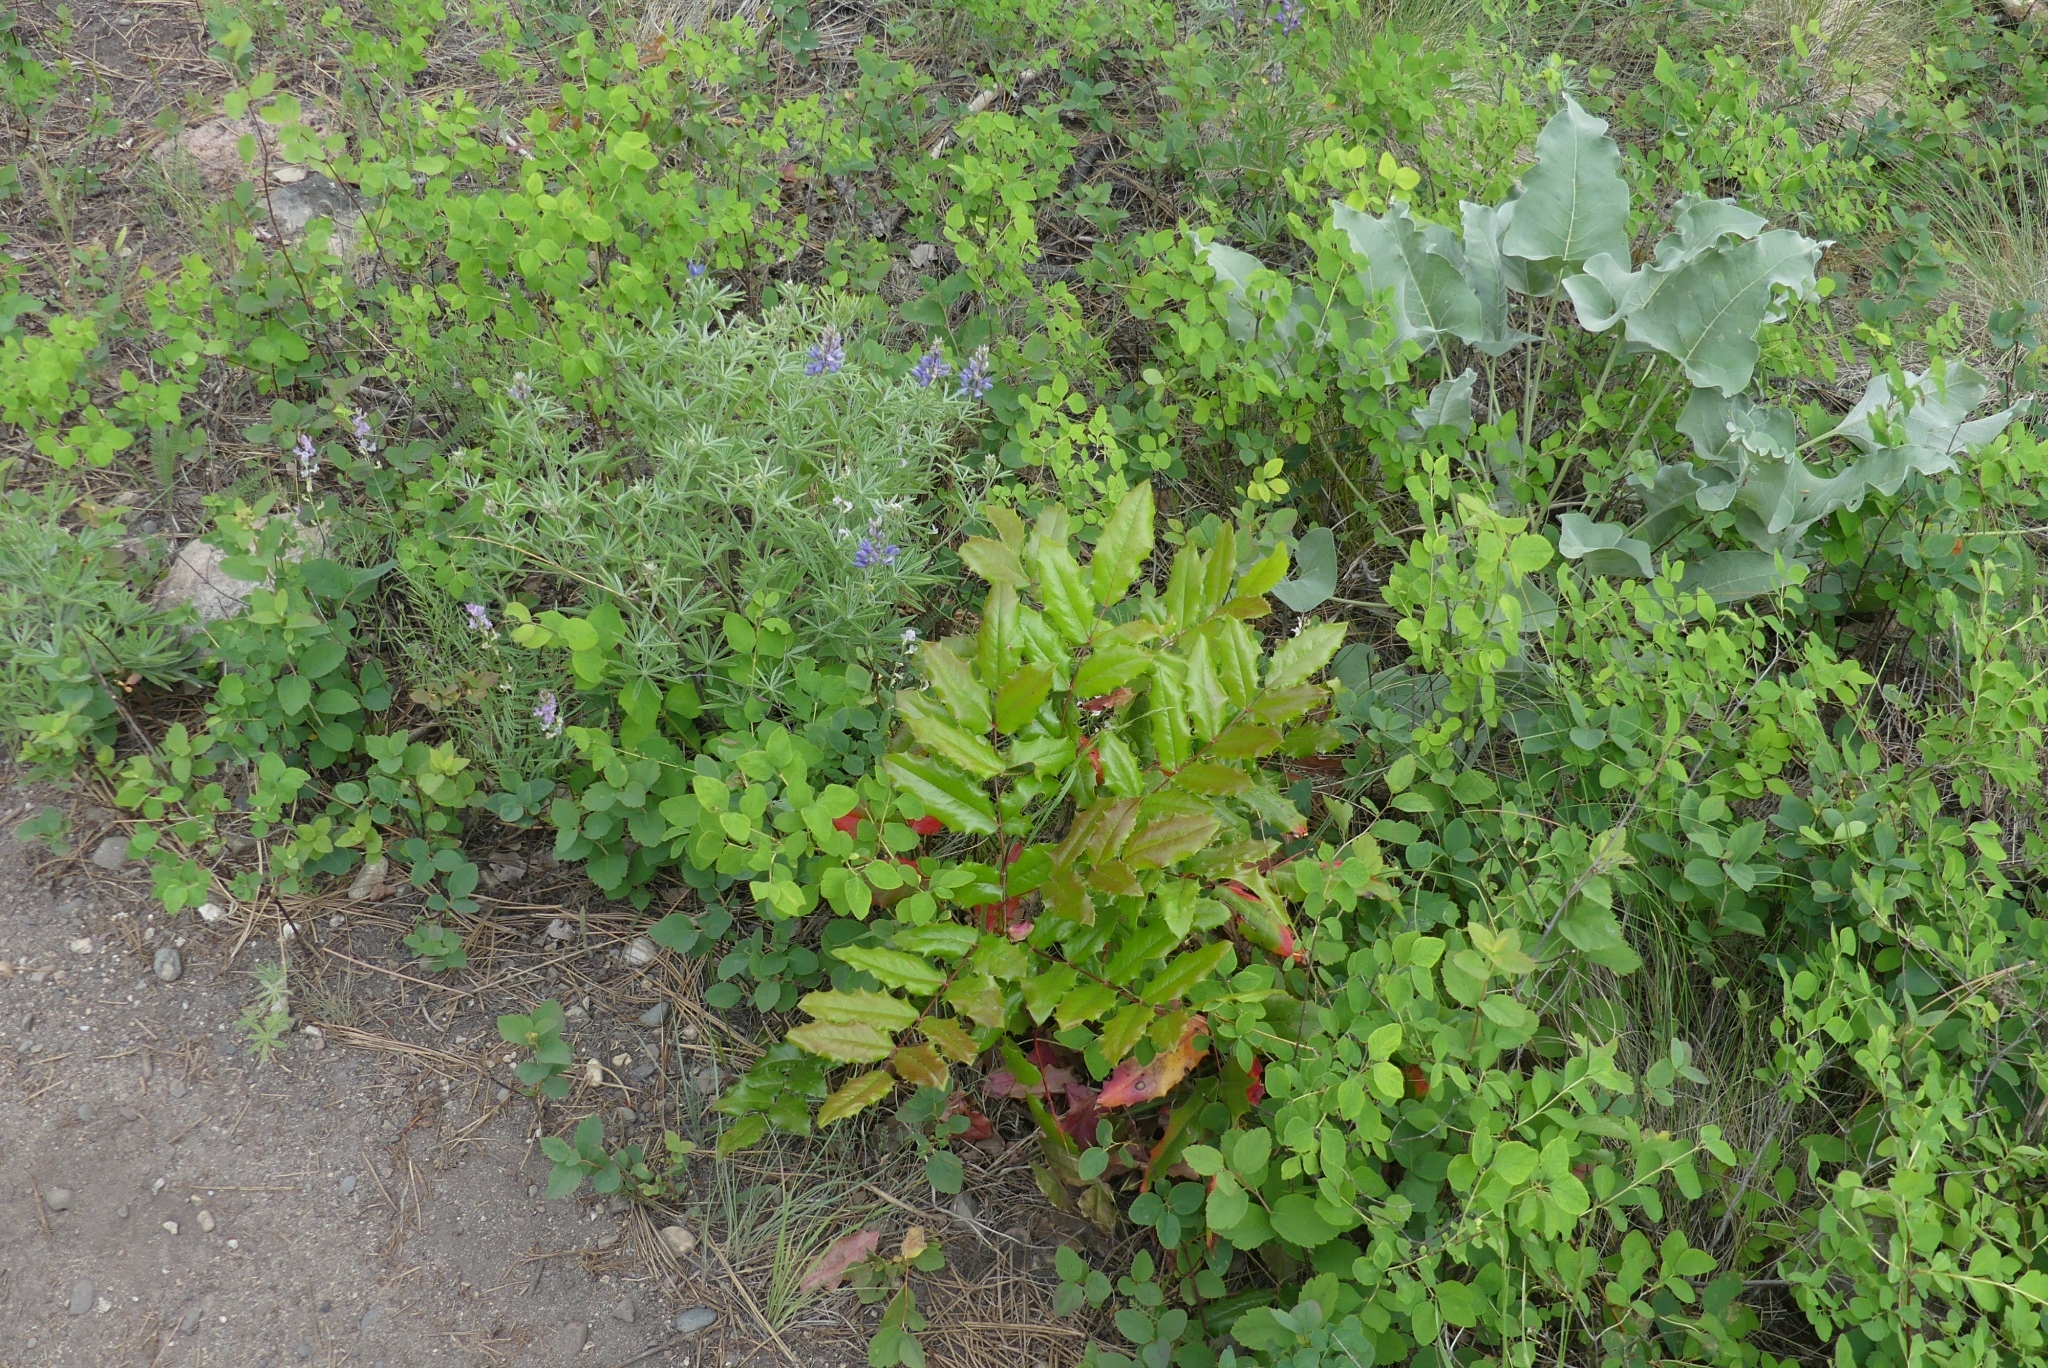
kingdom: Plantae
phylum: Tracheophyta
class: Magnoliopsida
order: Ranunculales
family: Berberidaceae
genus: Mahonia
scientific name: Mahonia aquifolium
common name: Oregon-grape
